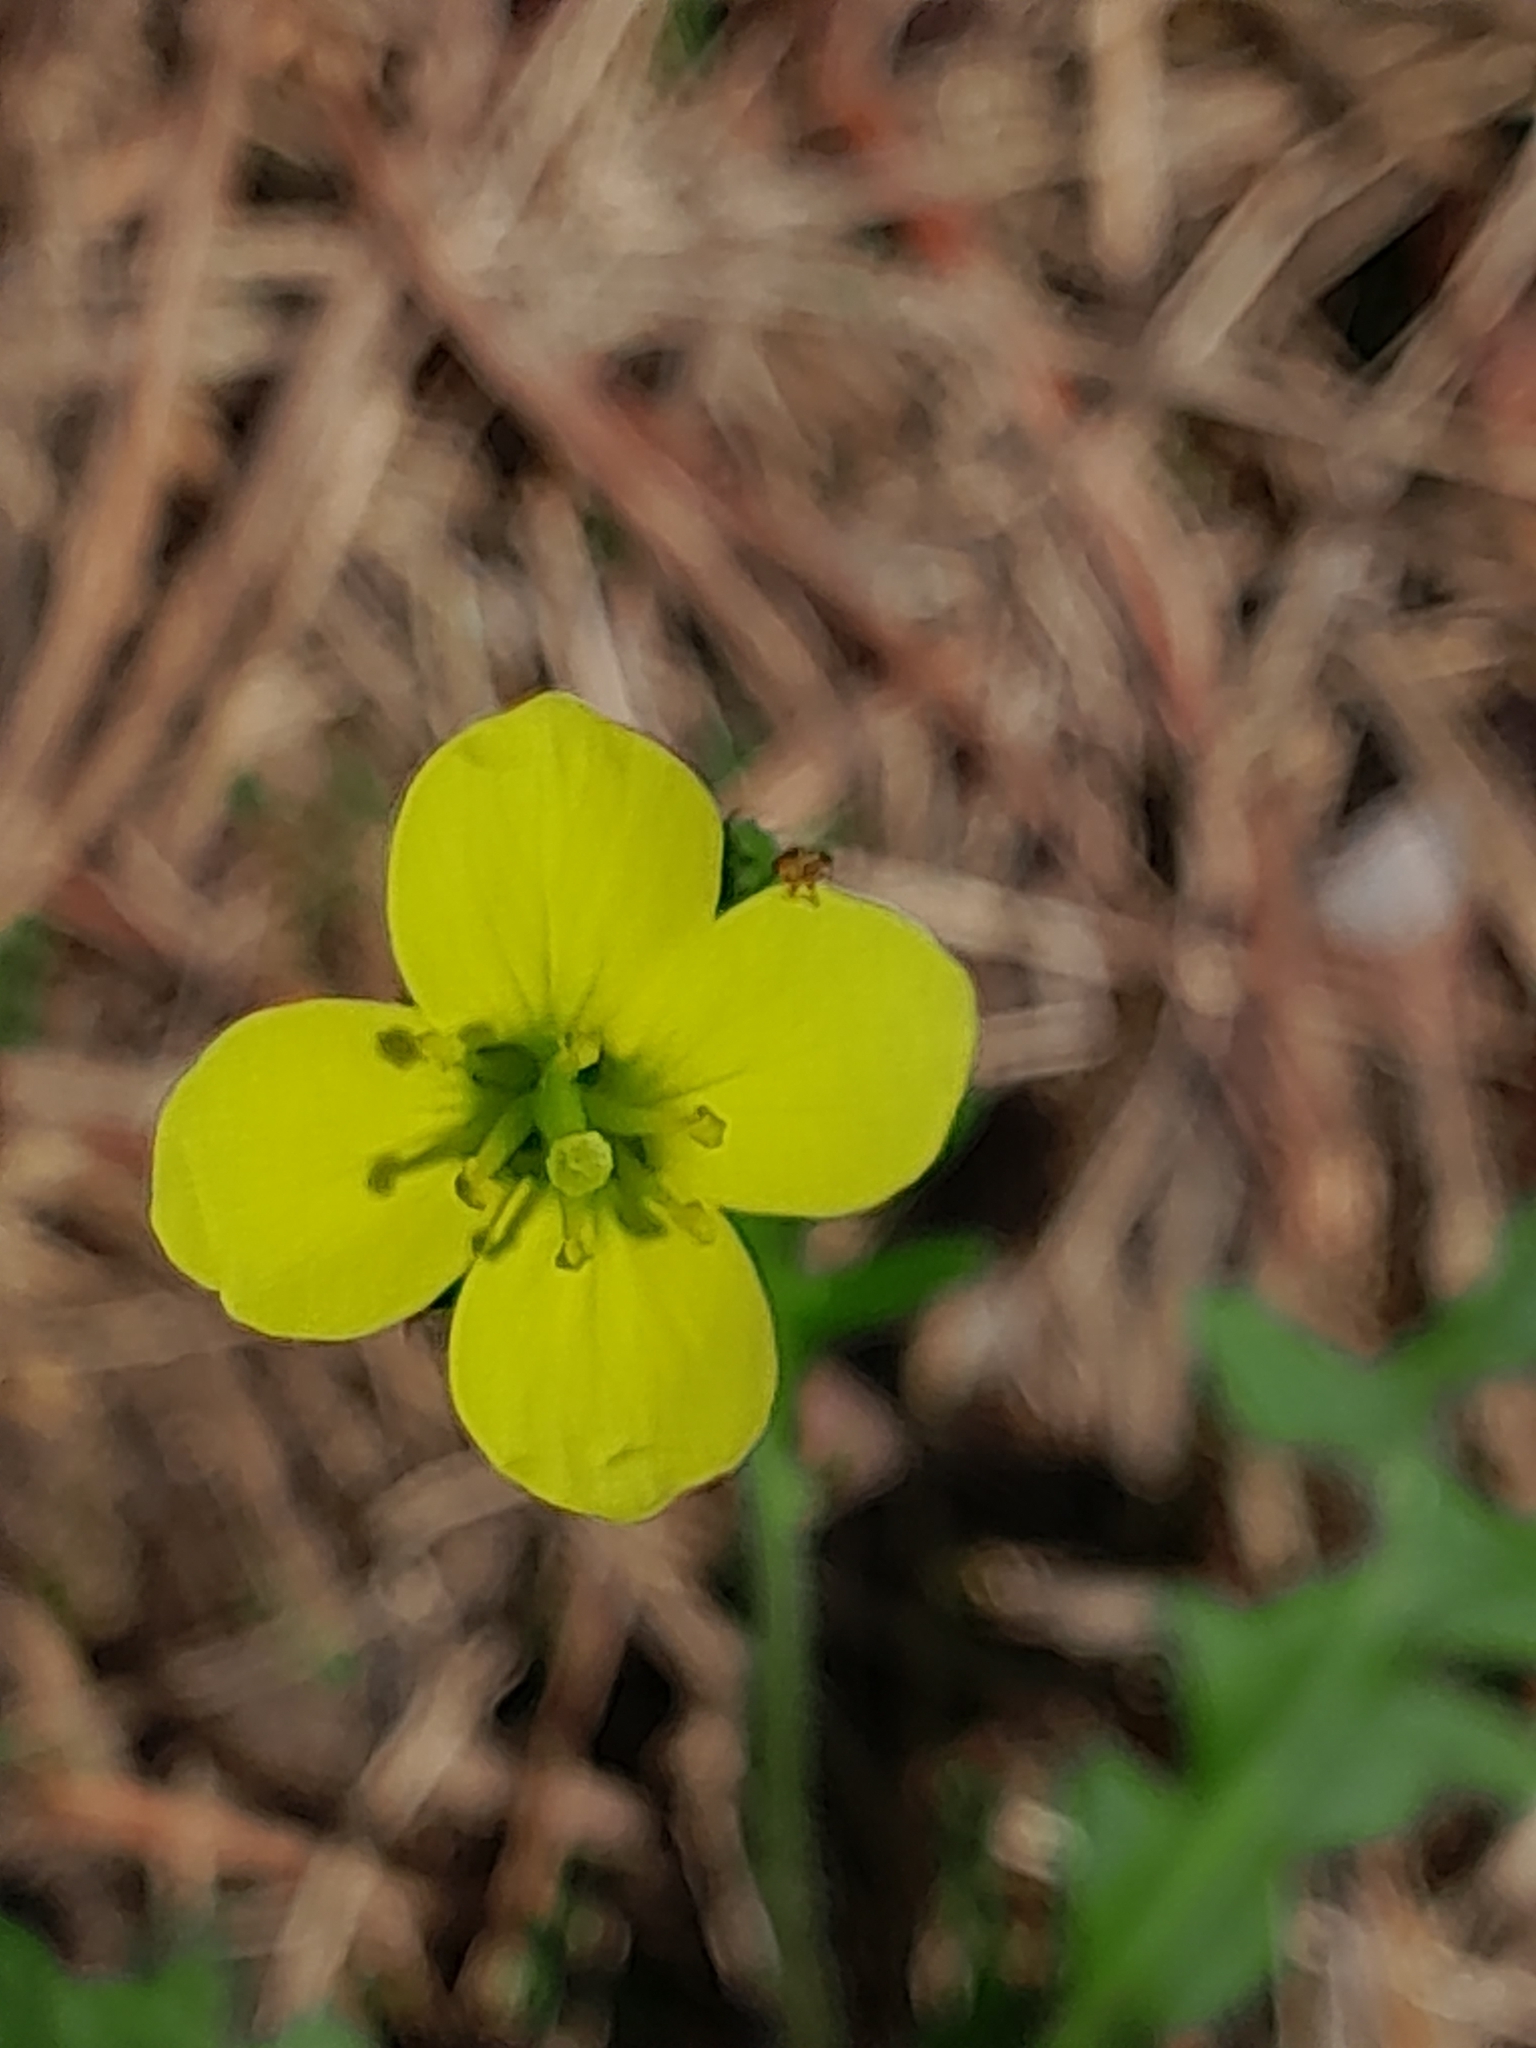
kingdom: Plantae
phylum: Tracheophyta
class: Magnoliopsida
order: Brassicales
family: Brassicaceae
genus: Diplotaxis
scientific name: Diplotaxis tenuifolia
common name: Perennial wall-rocket
